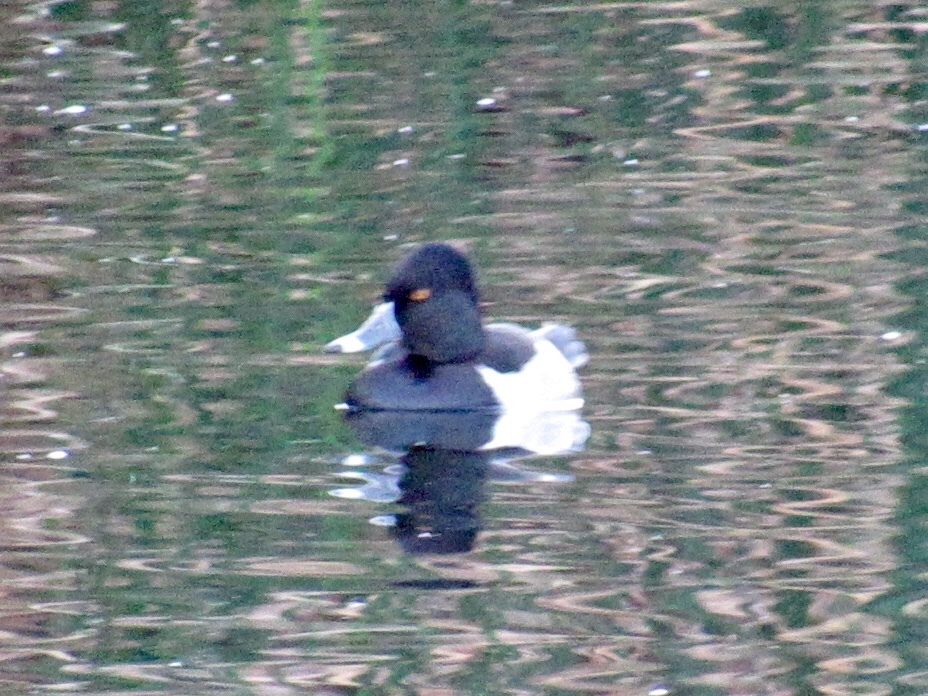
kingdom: Animalia
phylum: Chordata
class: Aves
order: Anseriformes
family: Anatidae
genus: Aythya
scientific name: Aythya collaris
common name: Ring-necked duck
